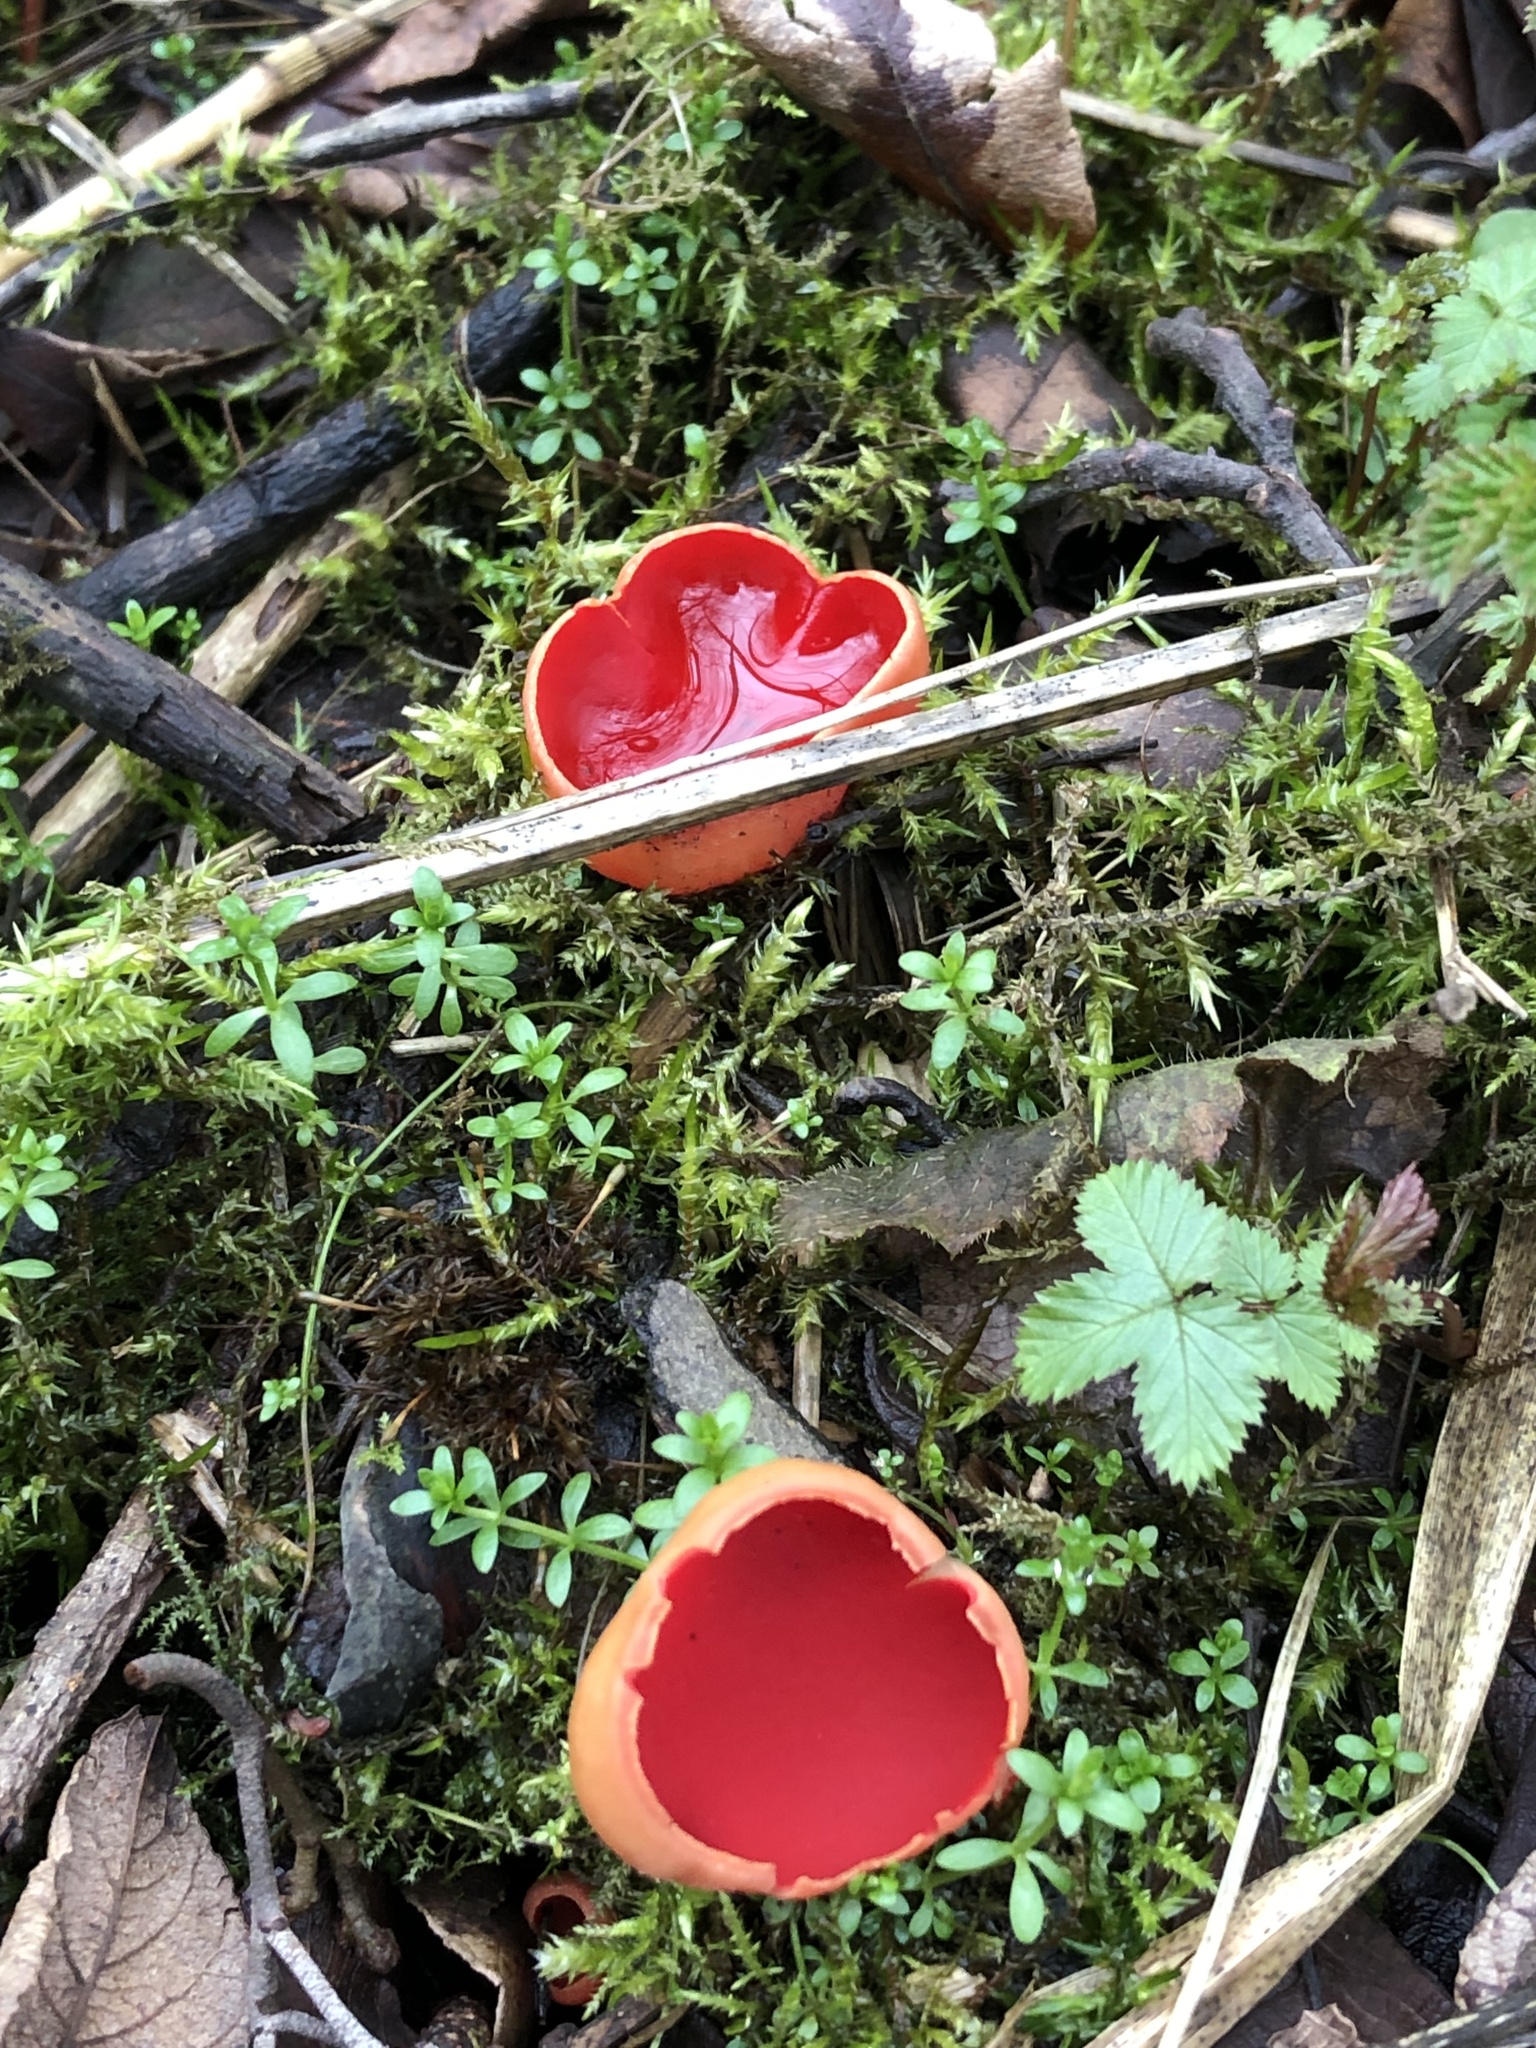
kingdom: Fungi
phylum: Ascomycota
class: Pezizomycetes
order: Pezizales
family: Sarcoscyphaceae
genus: Sarcoscypha
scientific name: Sarcoscypha
